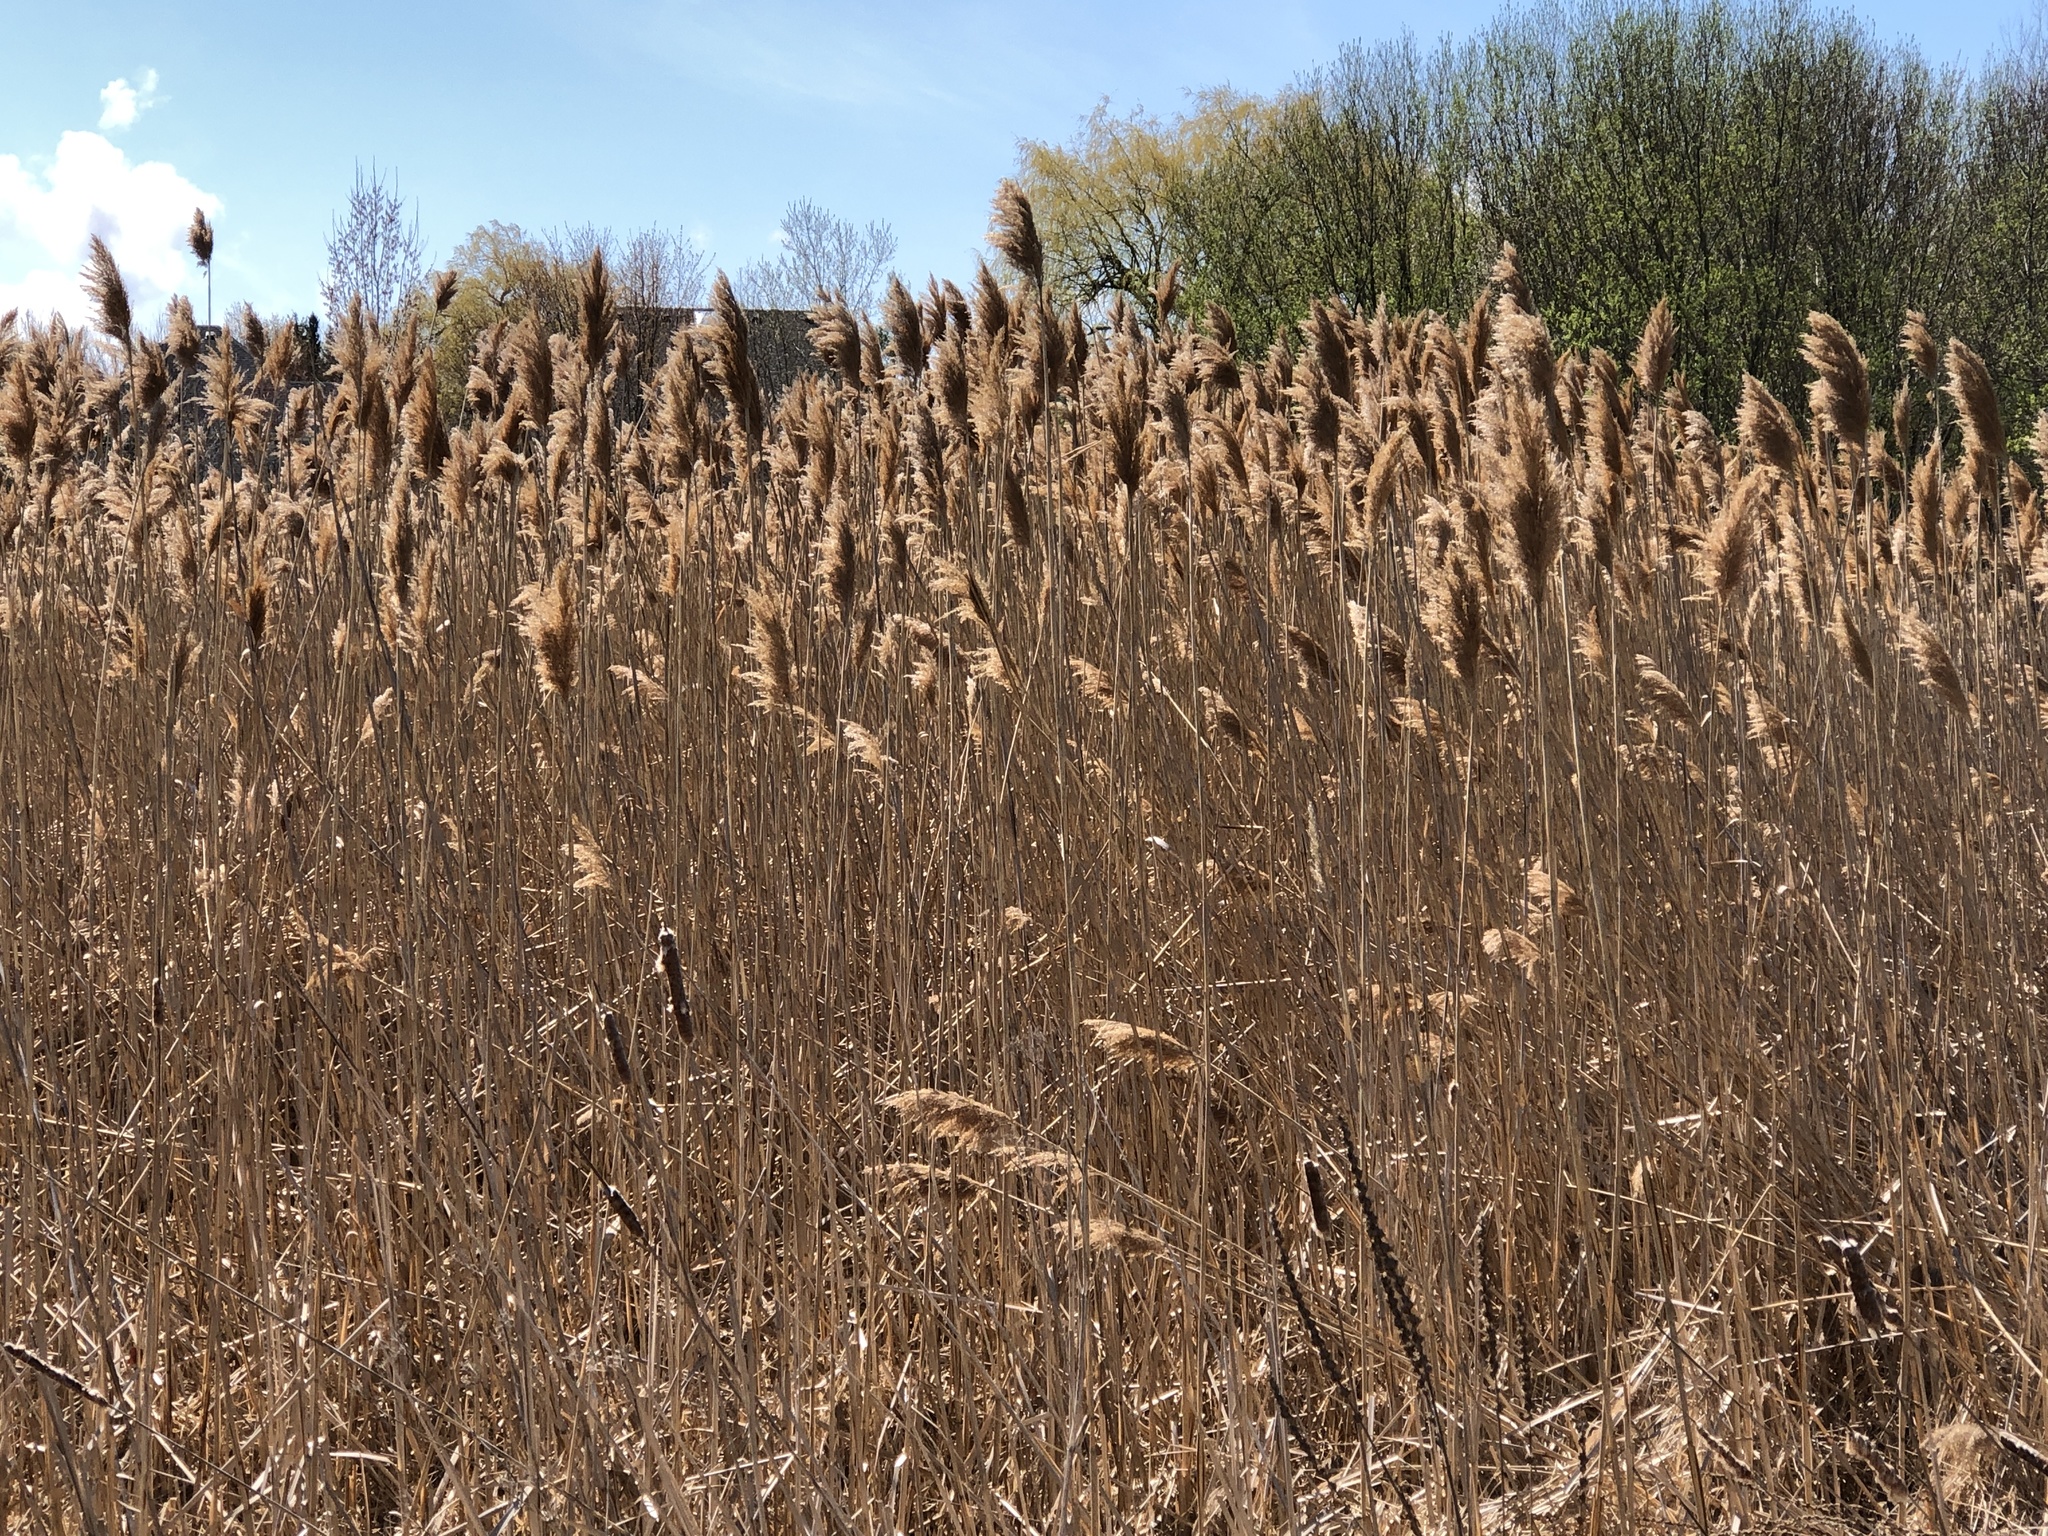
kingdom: Plantae
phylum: Tracheophyta
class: Liliopsida
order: Poales
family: Poaceae
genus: Phragmites
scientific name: Phragmites australis
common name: Common reed
